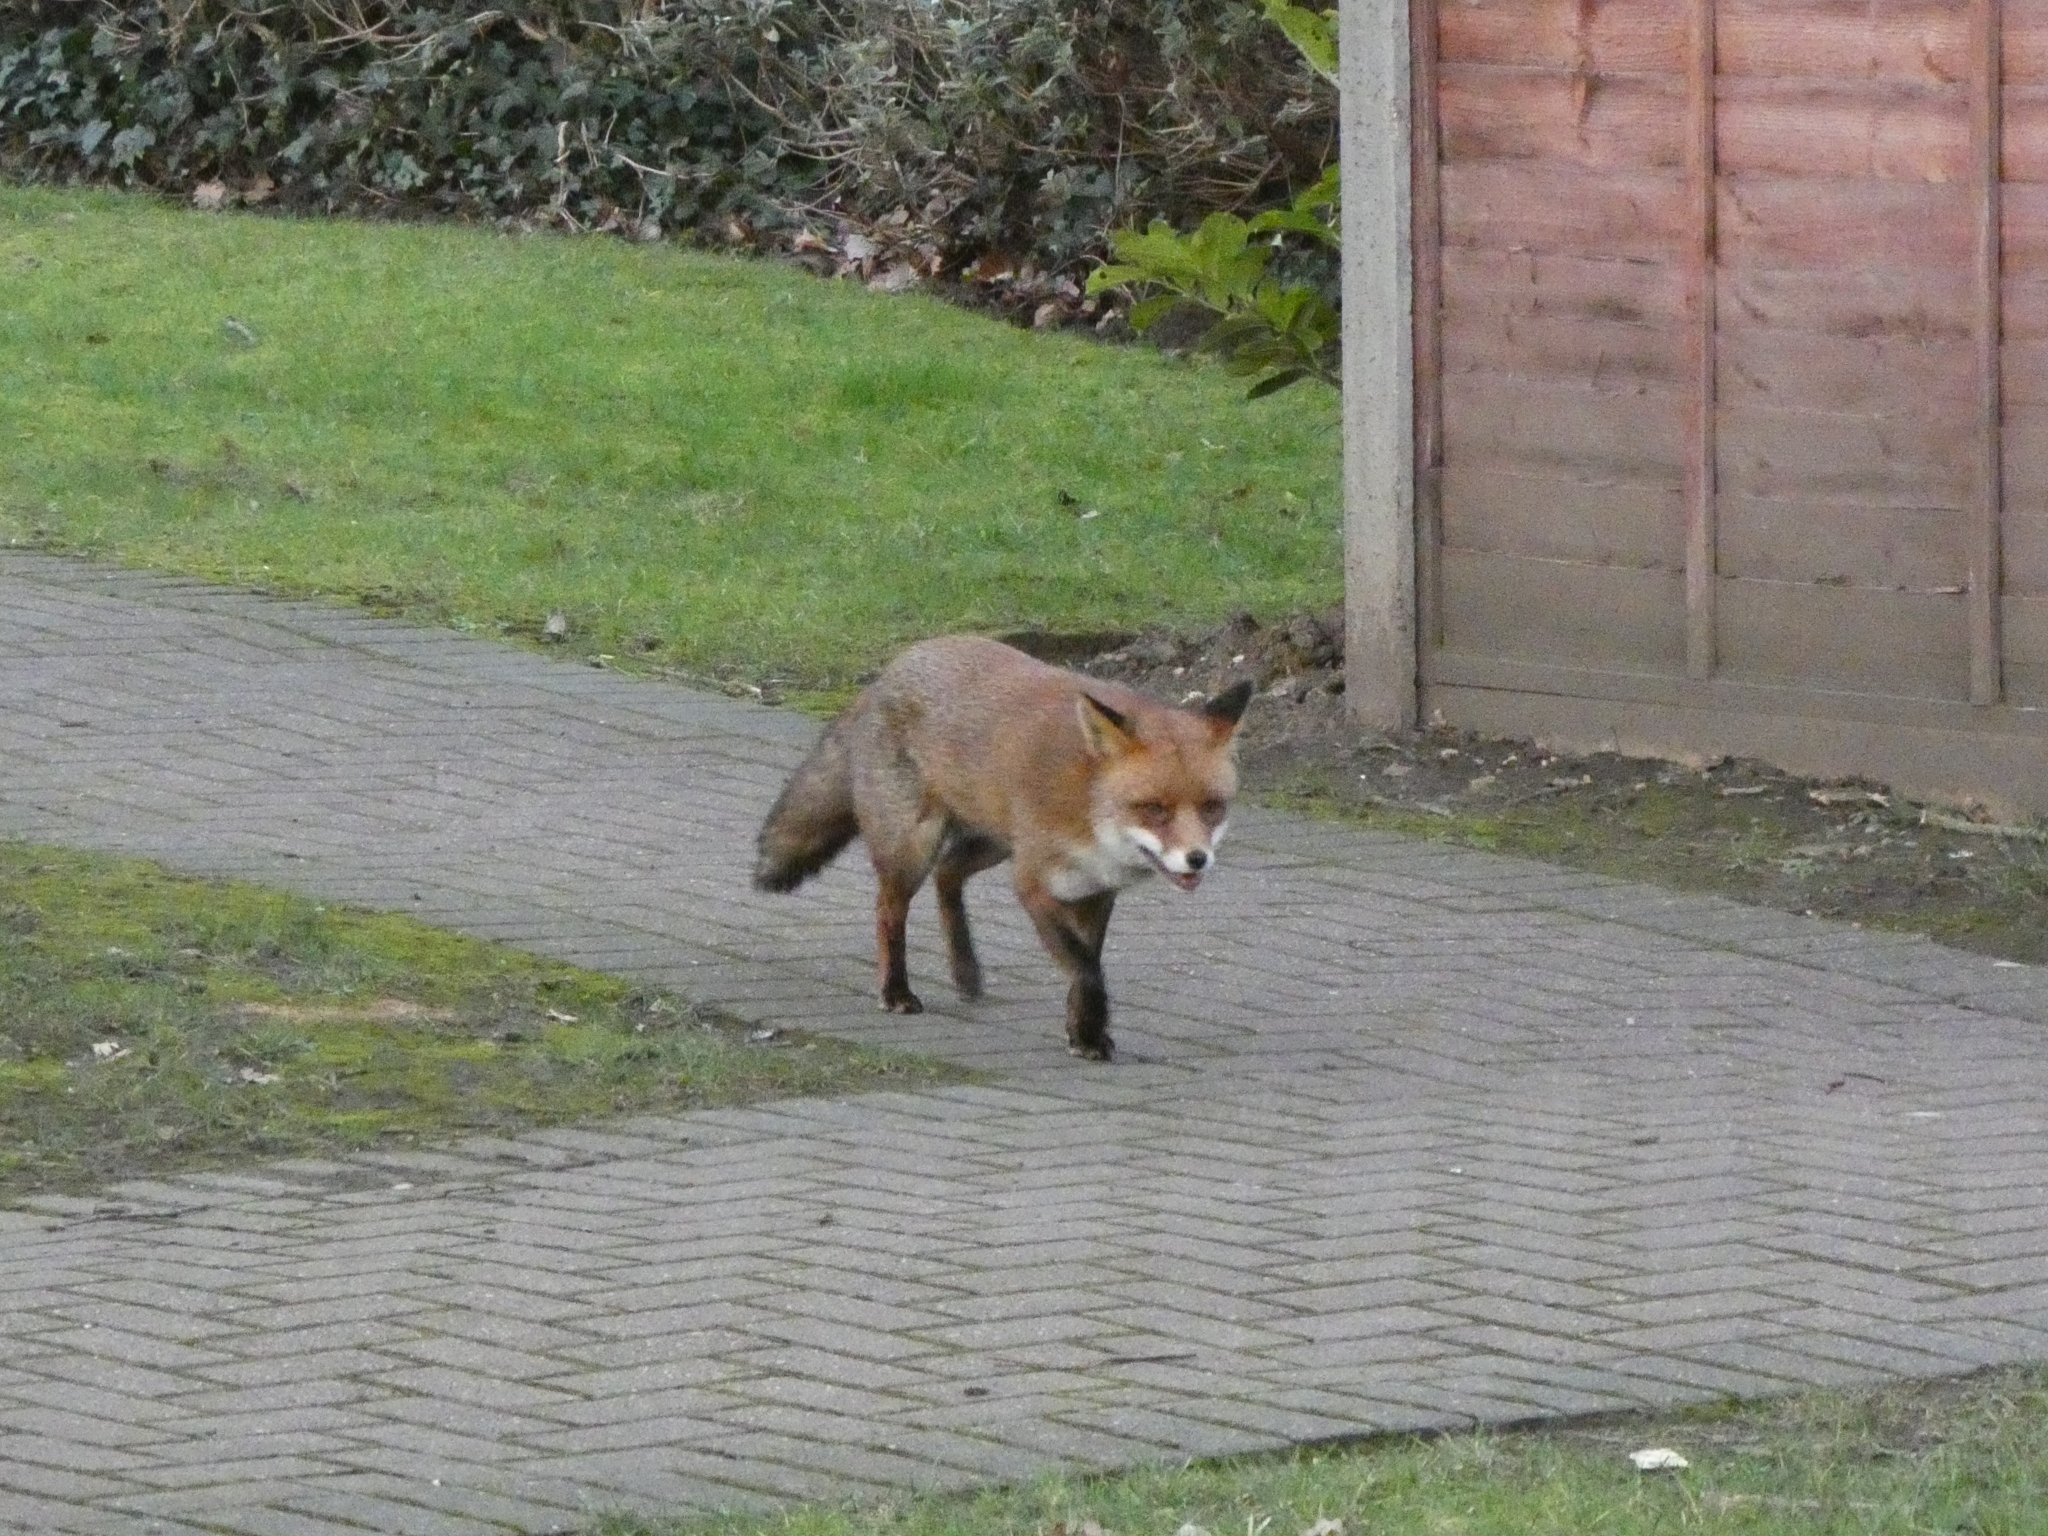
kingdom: Animalia
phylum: Chordata
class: Mammalia
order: Carnivora
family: Canidae
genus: Vulpes
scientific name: Vulpes vulpes
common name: Red fox
